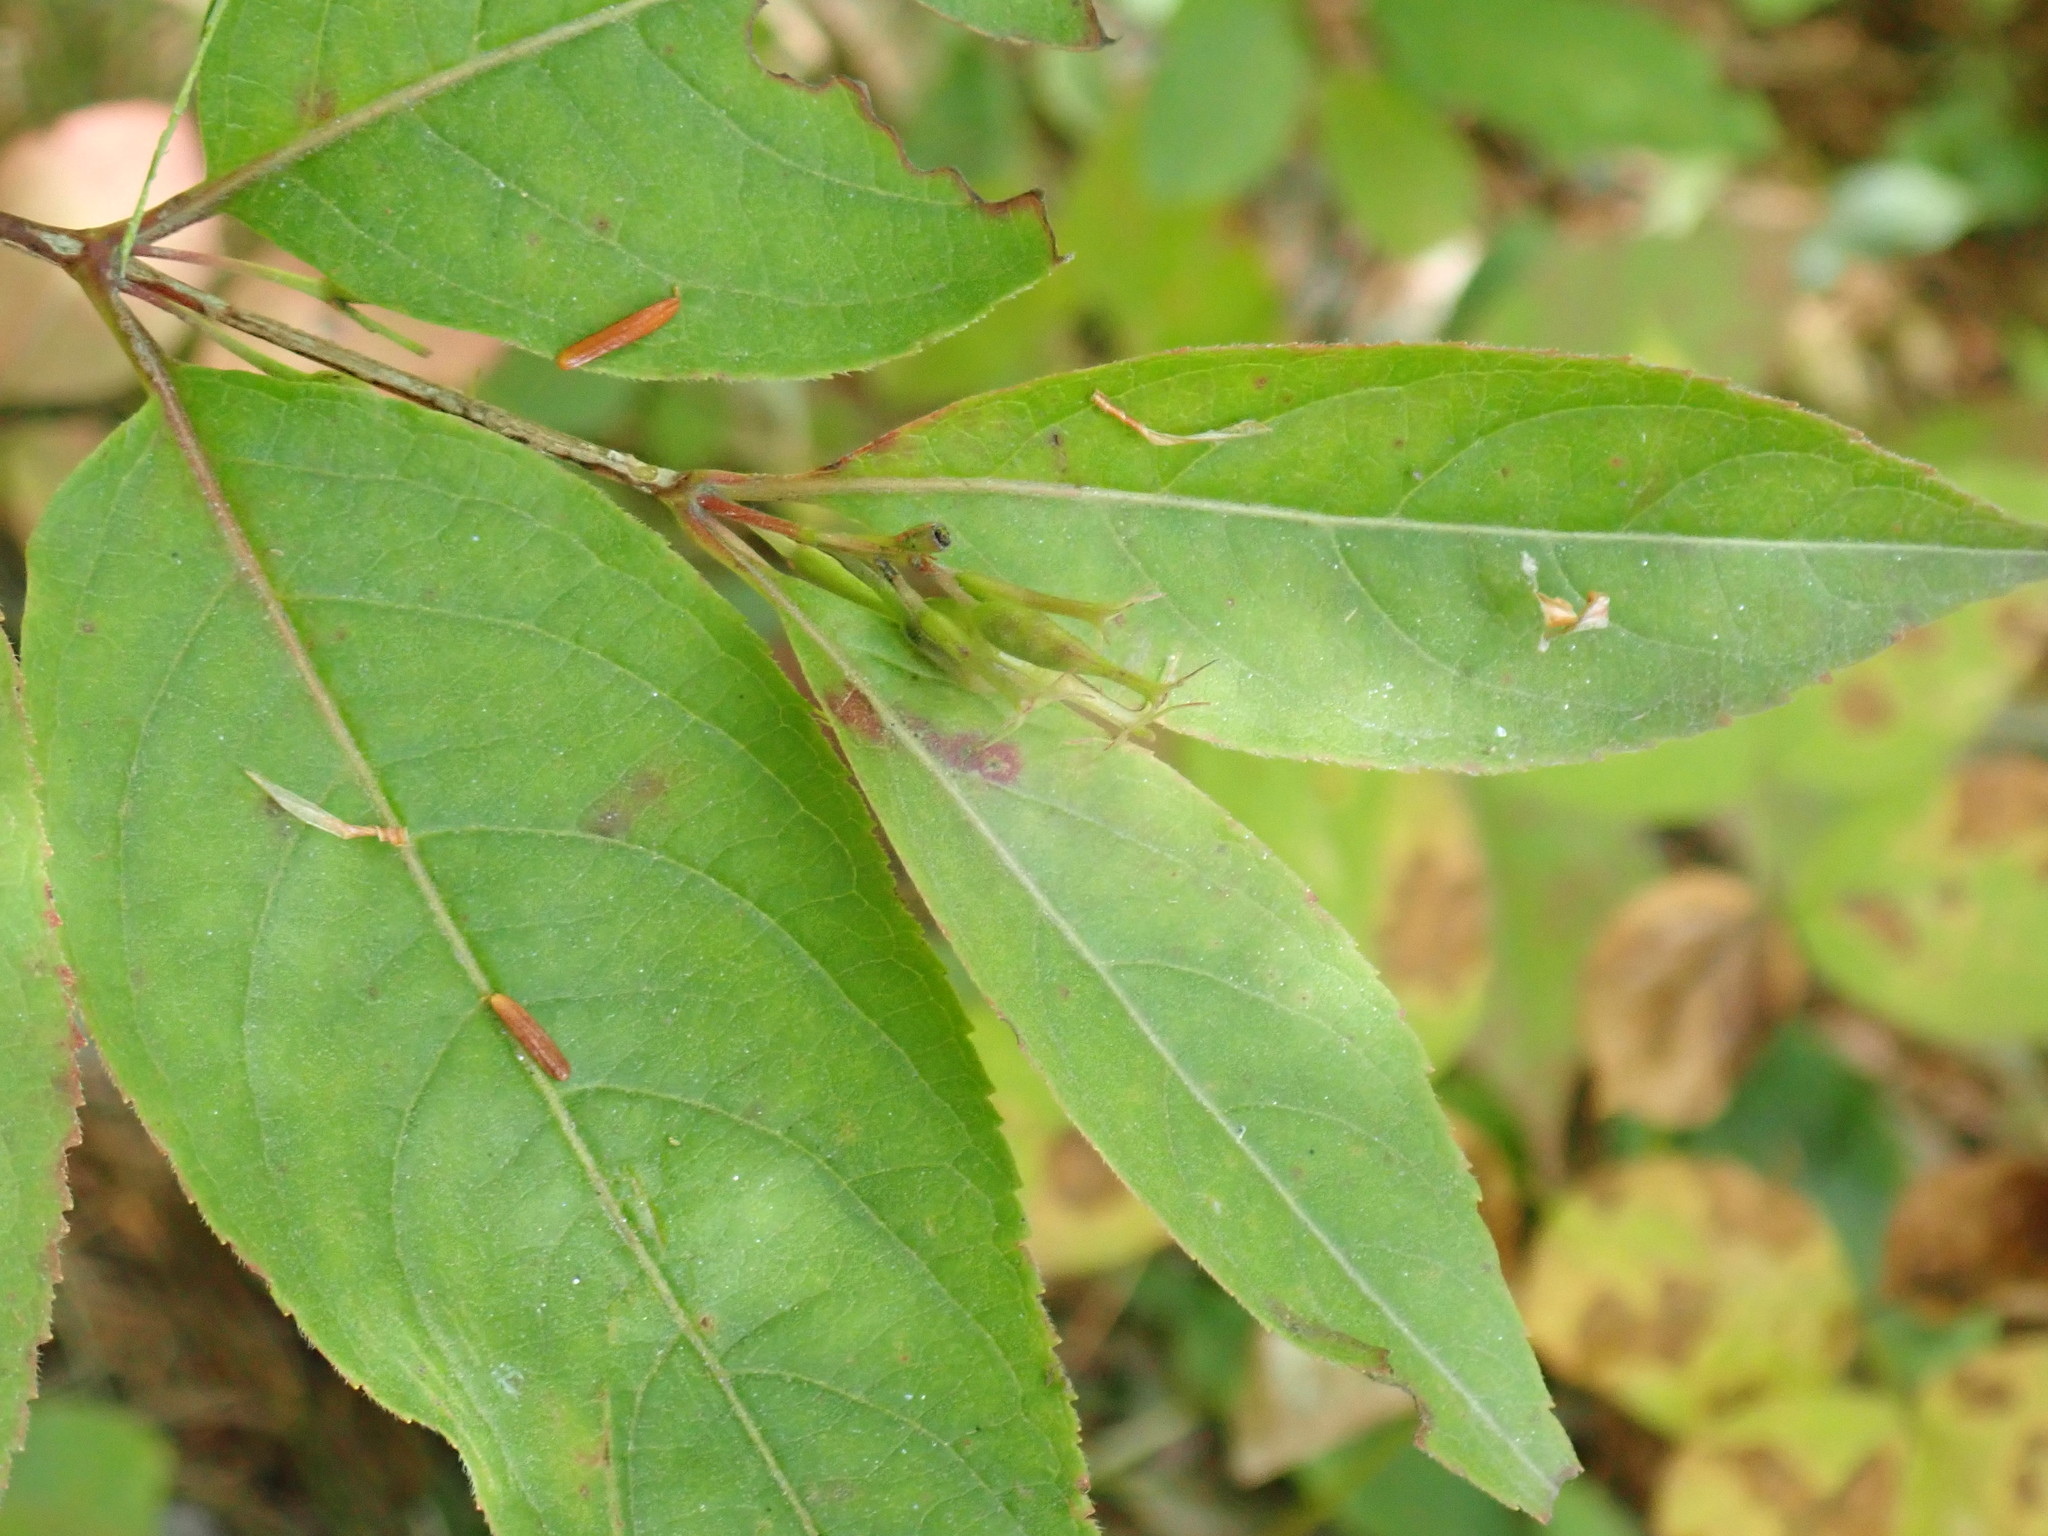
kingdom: Plantae
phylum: Tracheophyta
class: Magnoliopsida
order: Dipsacales
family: Caprifoliaceae
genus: Diervilla
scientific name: Diervilla lonicera
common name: Bush-honeysuckle
